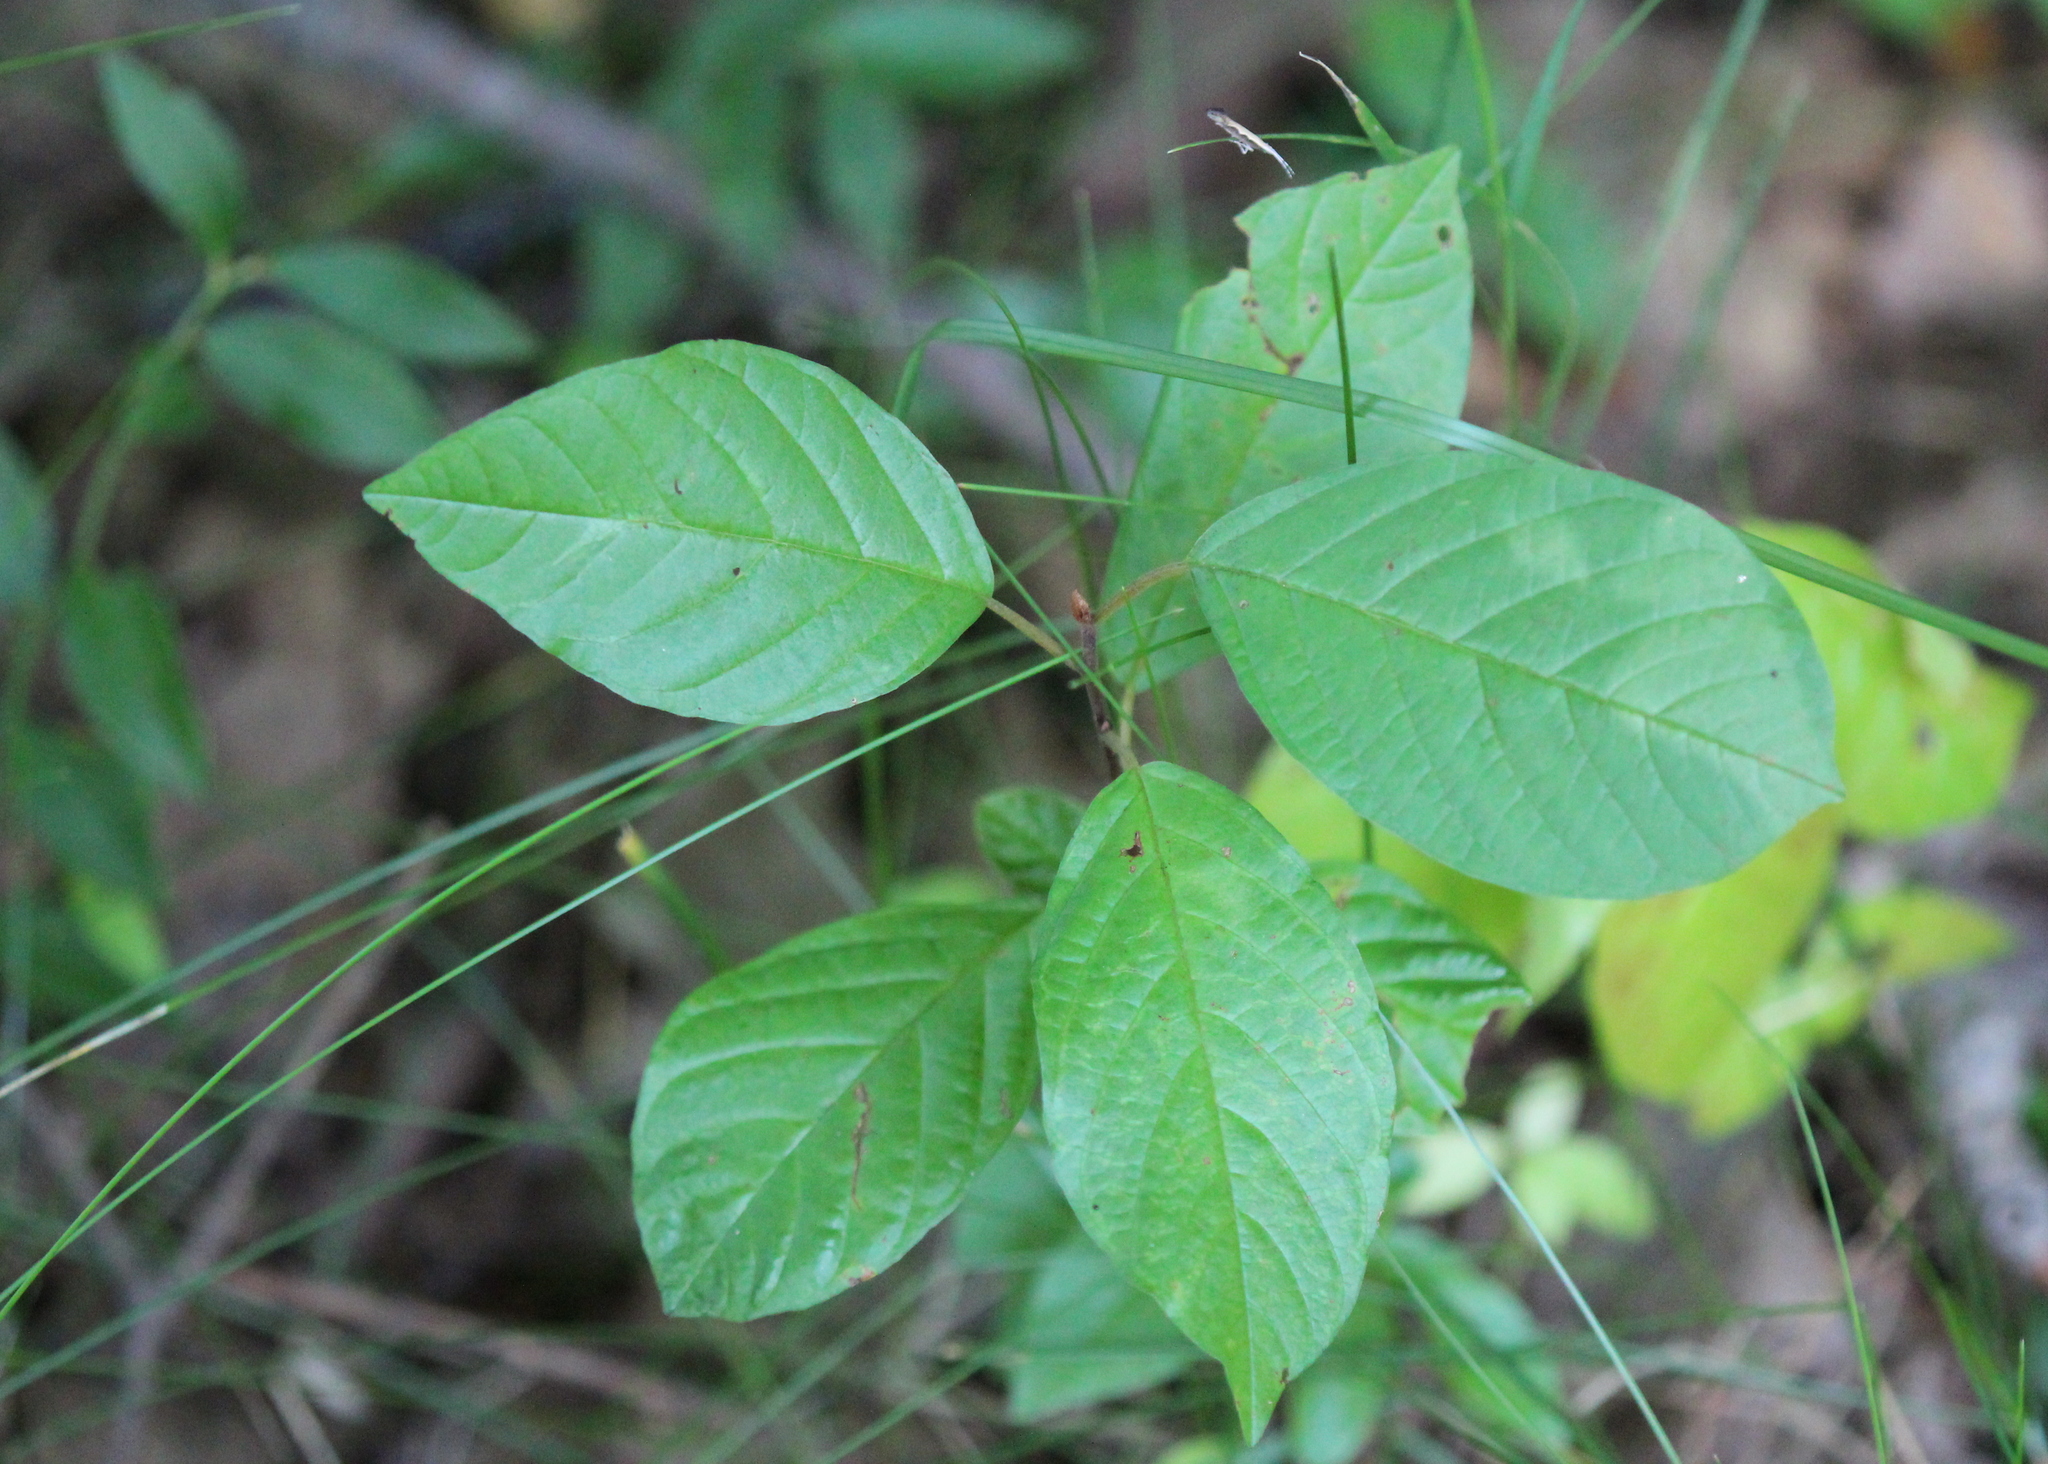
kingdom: Plantae
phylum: Tracheophyta
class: Magnoliopsida
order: Rosales
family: Rhamnaceae
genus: Frangula
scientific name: Frangula alnus
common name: Alder buckthorn
